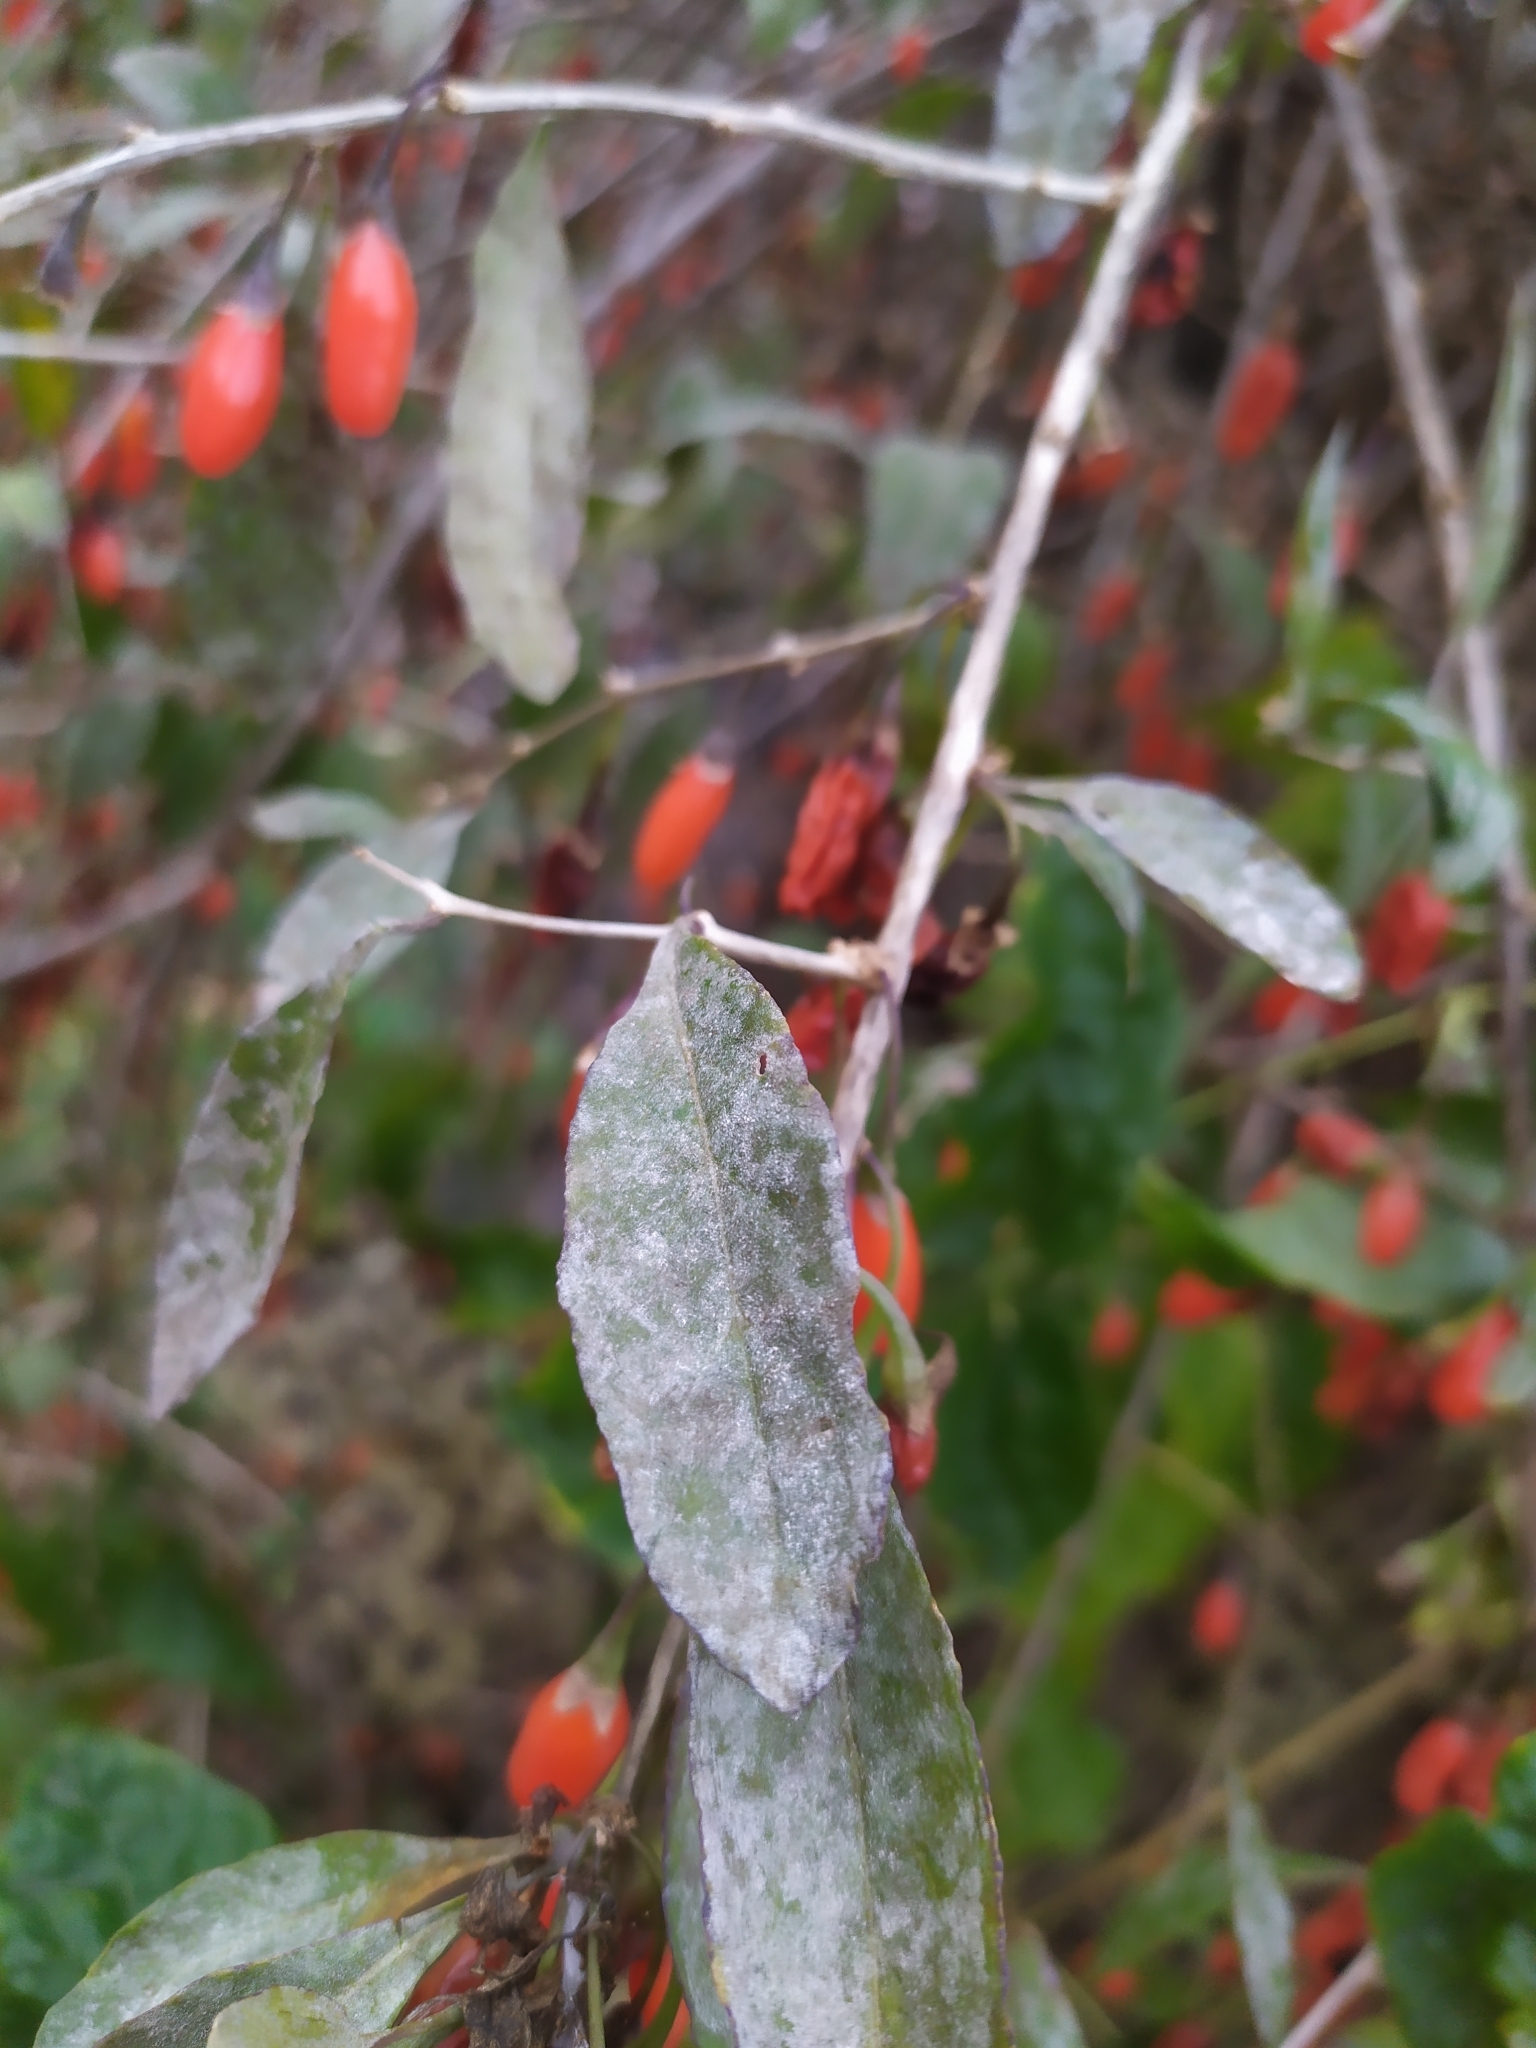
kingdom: Fungi
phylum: Ascomycota
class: Leotiomycetes
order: Helotiales
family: Erysiphaceae
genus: Erysiphe
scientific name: Erysiphe mougeotii
